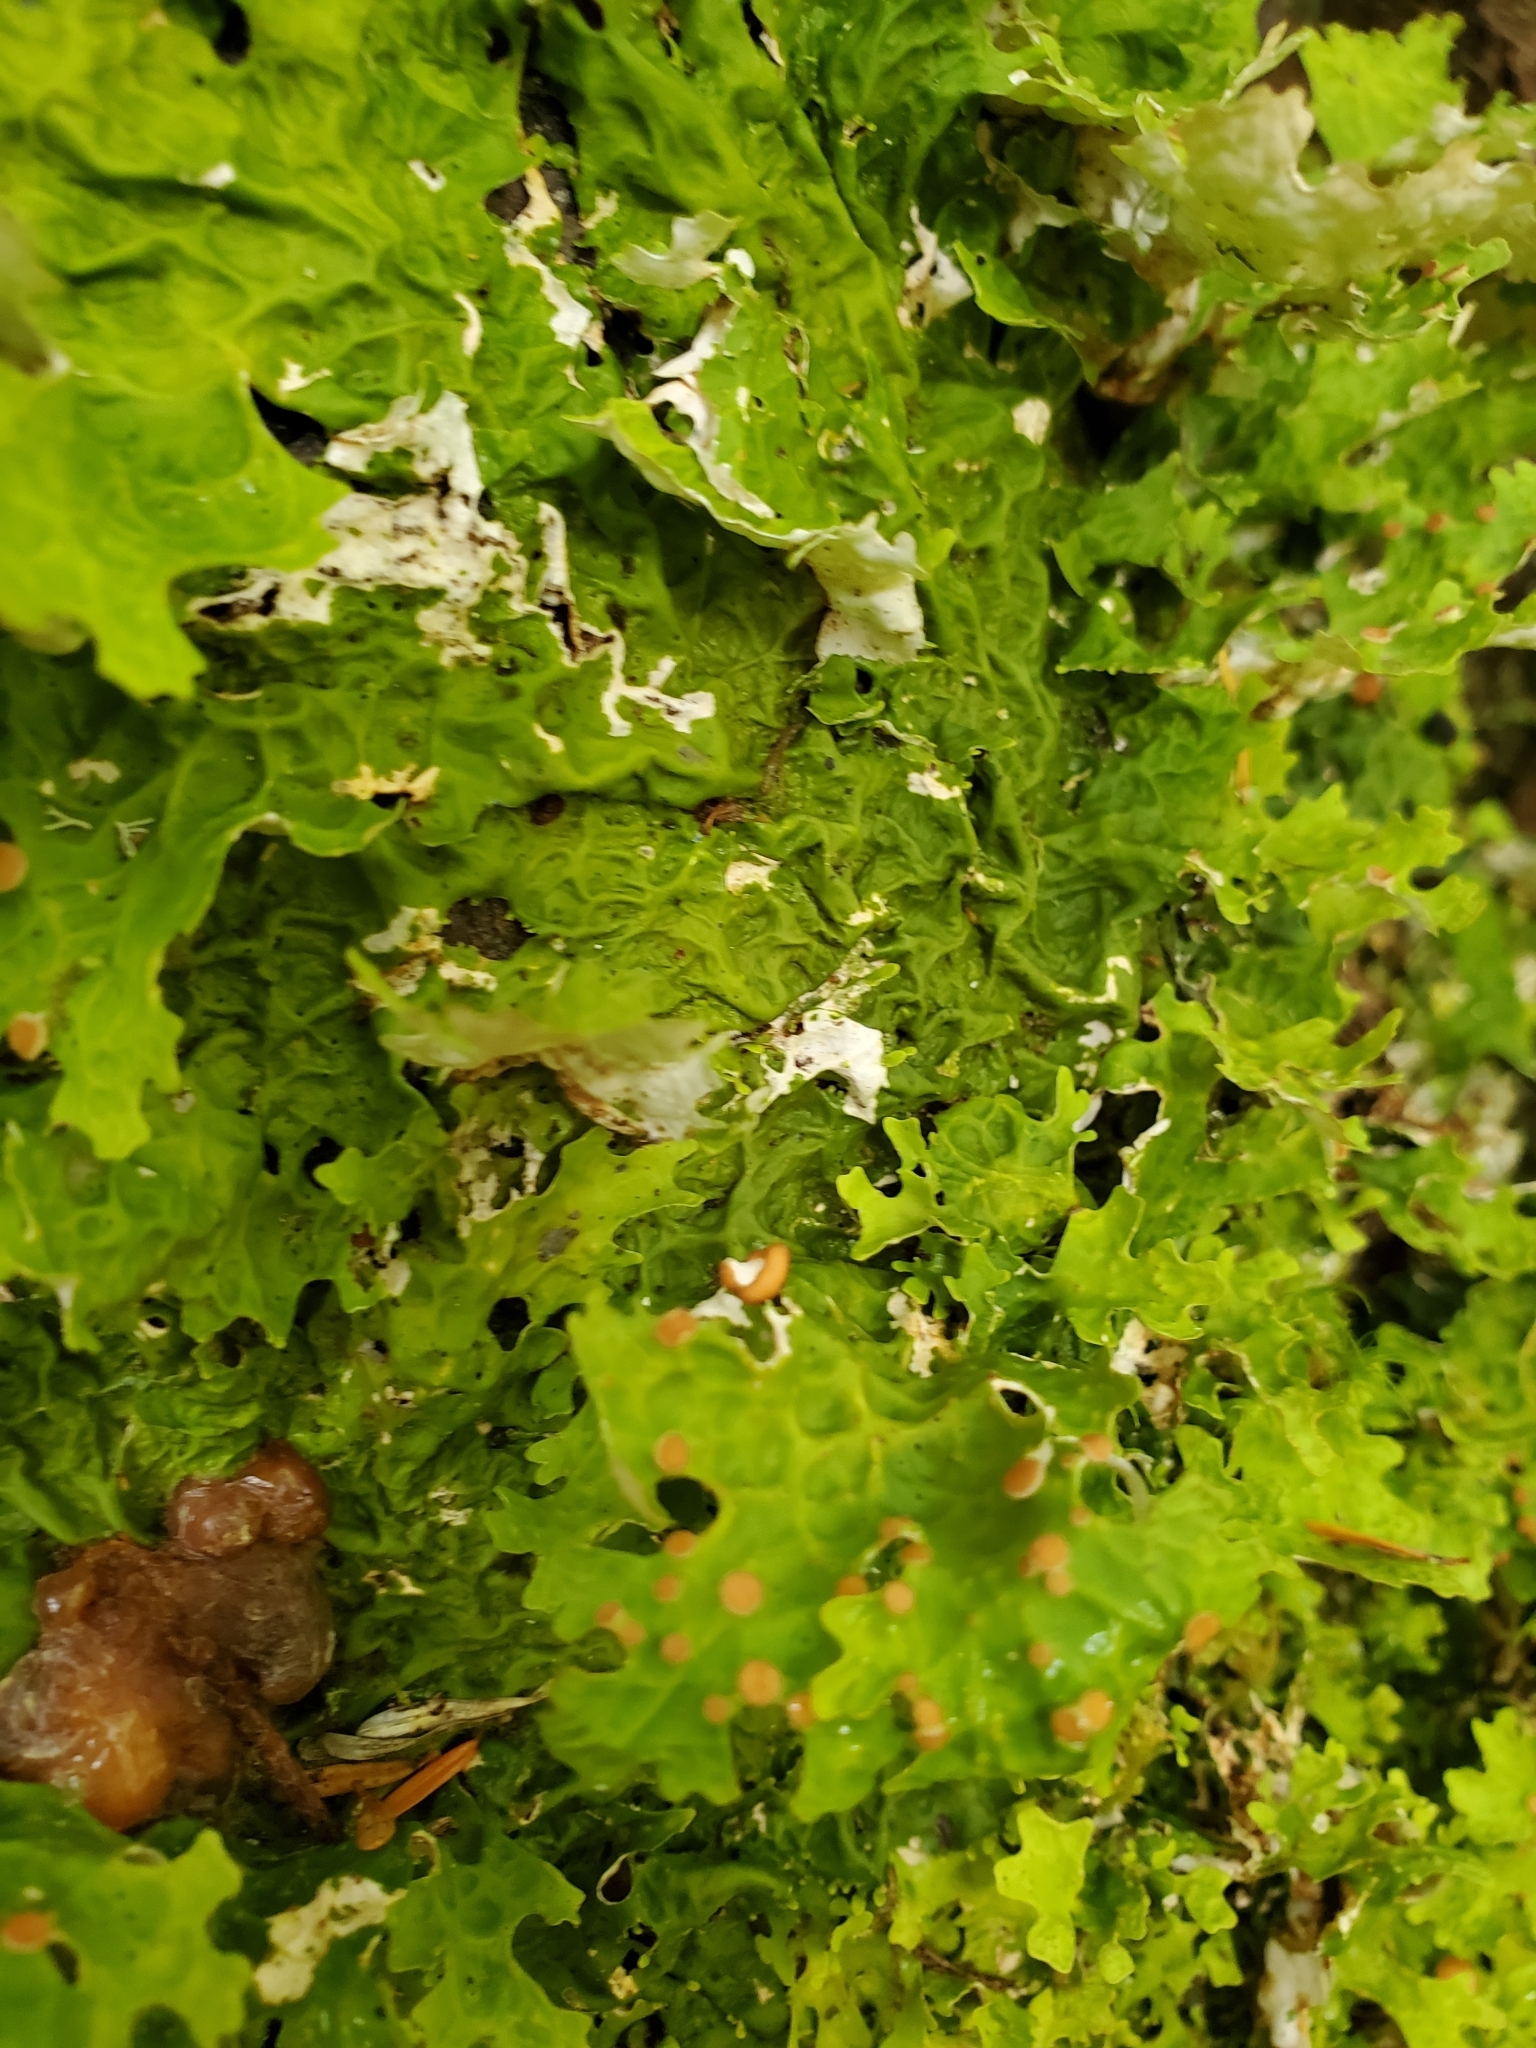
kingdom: Fungi
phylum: Ascomycota
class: Lecanoromycetes
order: Peltigerales
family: Lobariaceae
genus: Lobaria
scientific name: Lobaria linita
